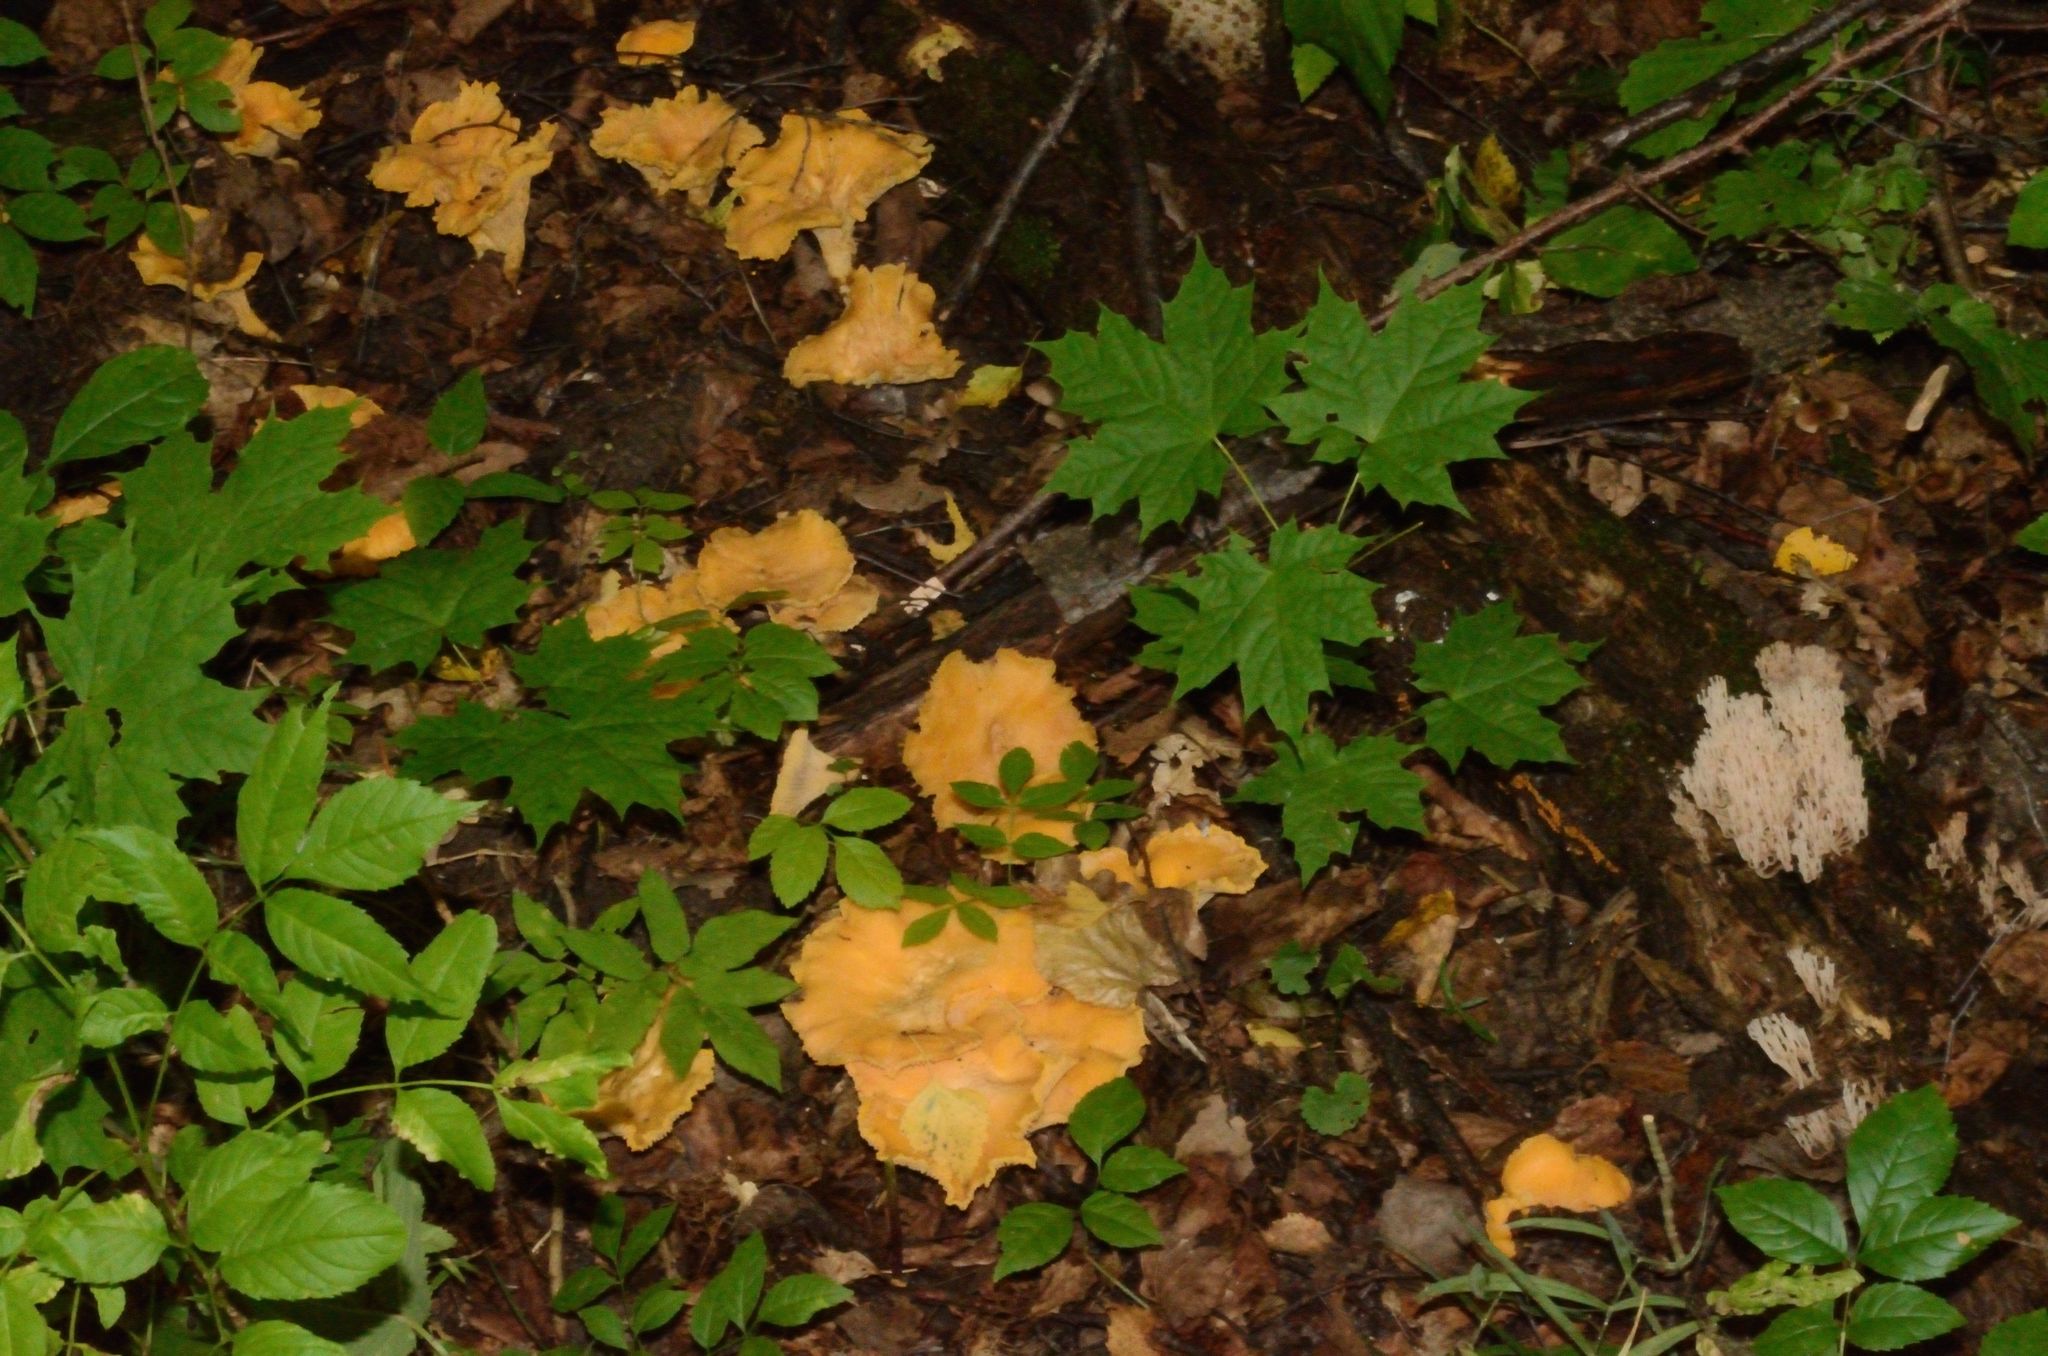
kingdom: Fungi
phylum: Basidiomycota
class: Agaricomycetes
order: Cantharellales
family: Hydnaceae
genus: Cantharellus
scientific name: Cantharellus cibarius
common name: Chanterelle
